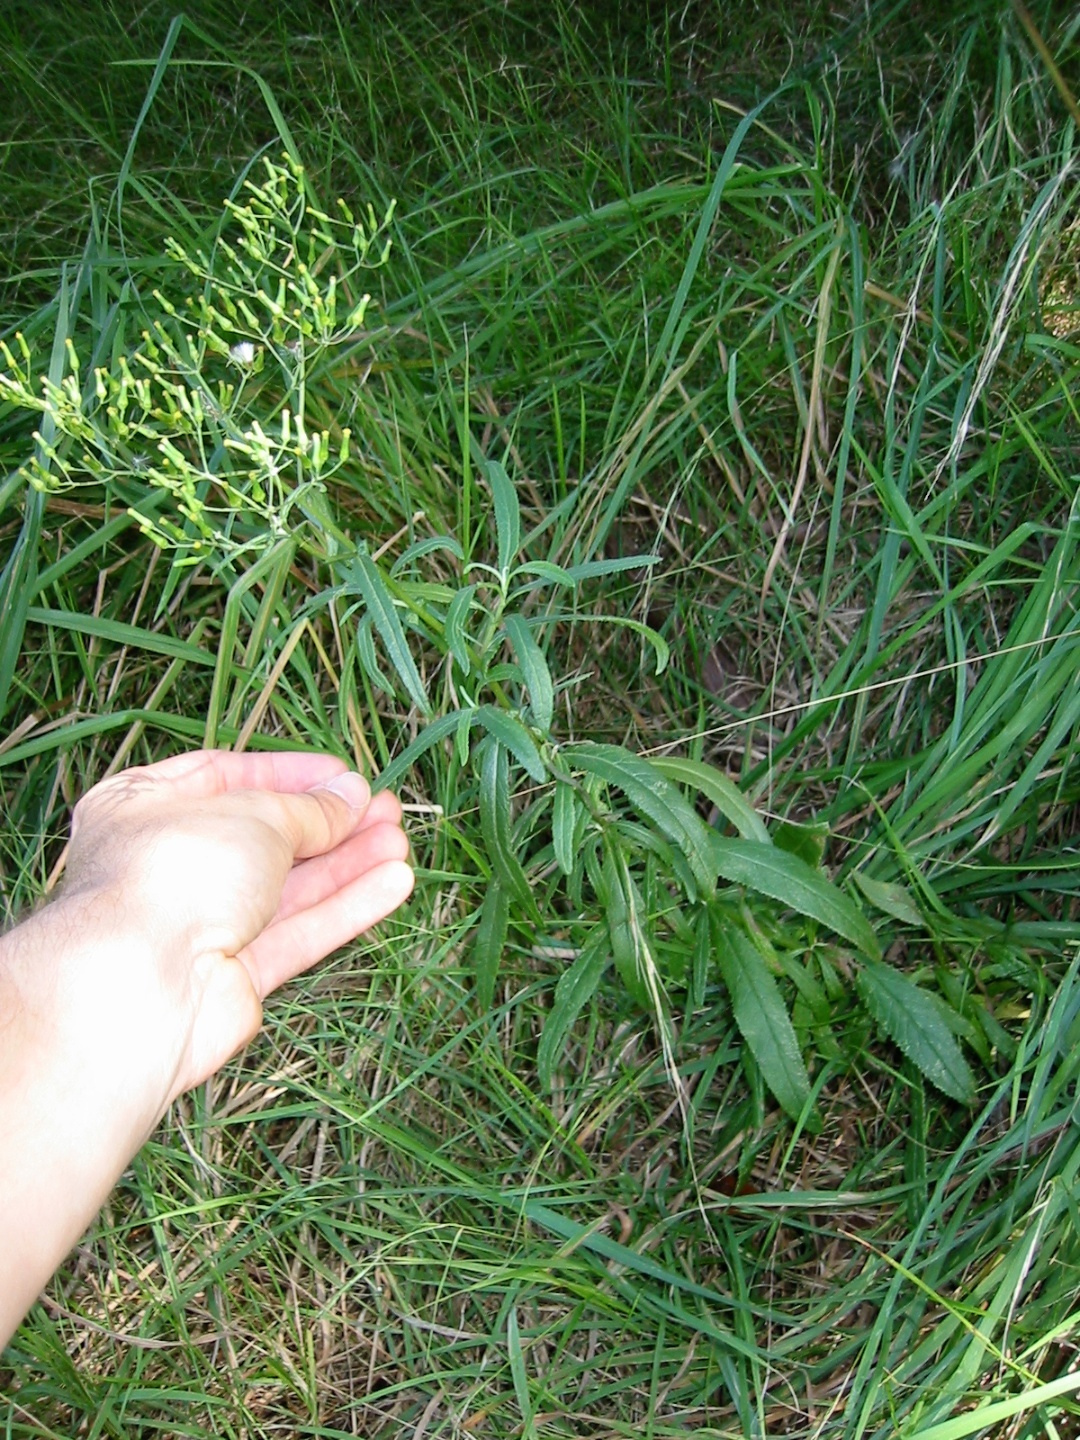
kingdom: Plantae
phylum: Tracheophyta
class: Magnoliopsida
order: Asterales
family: Asteraceae
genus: Senecio
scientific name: Senecio minimus
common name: Toothed fireweed
